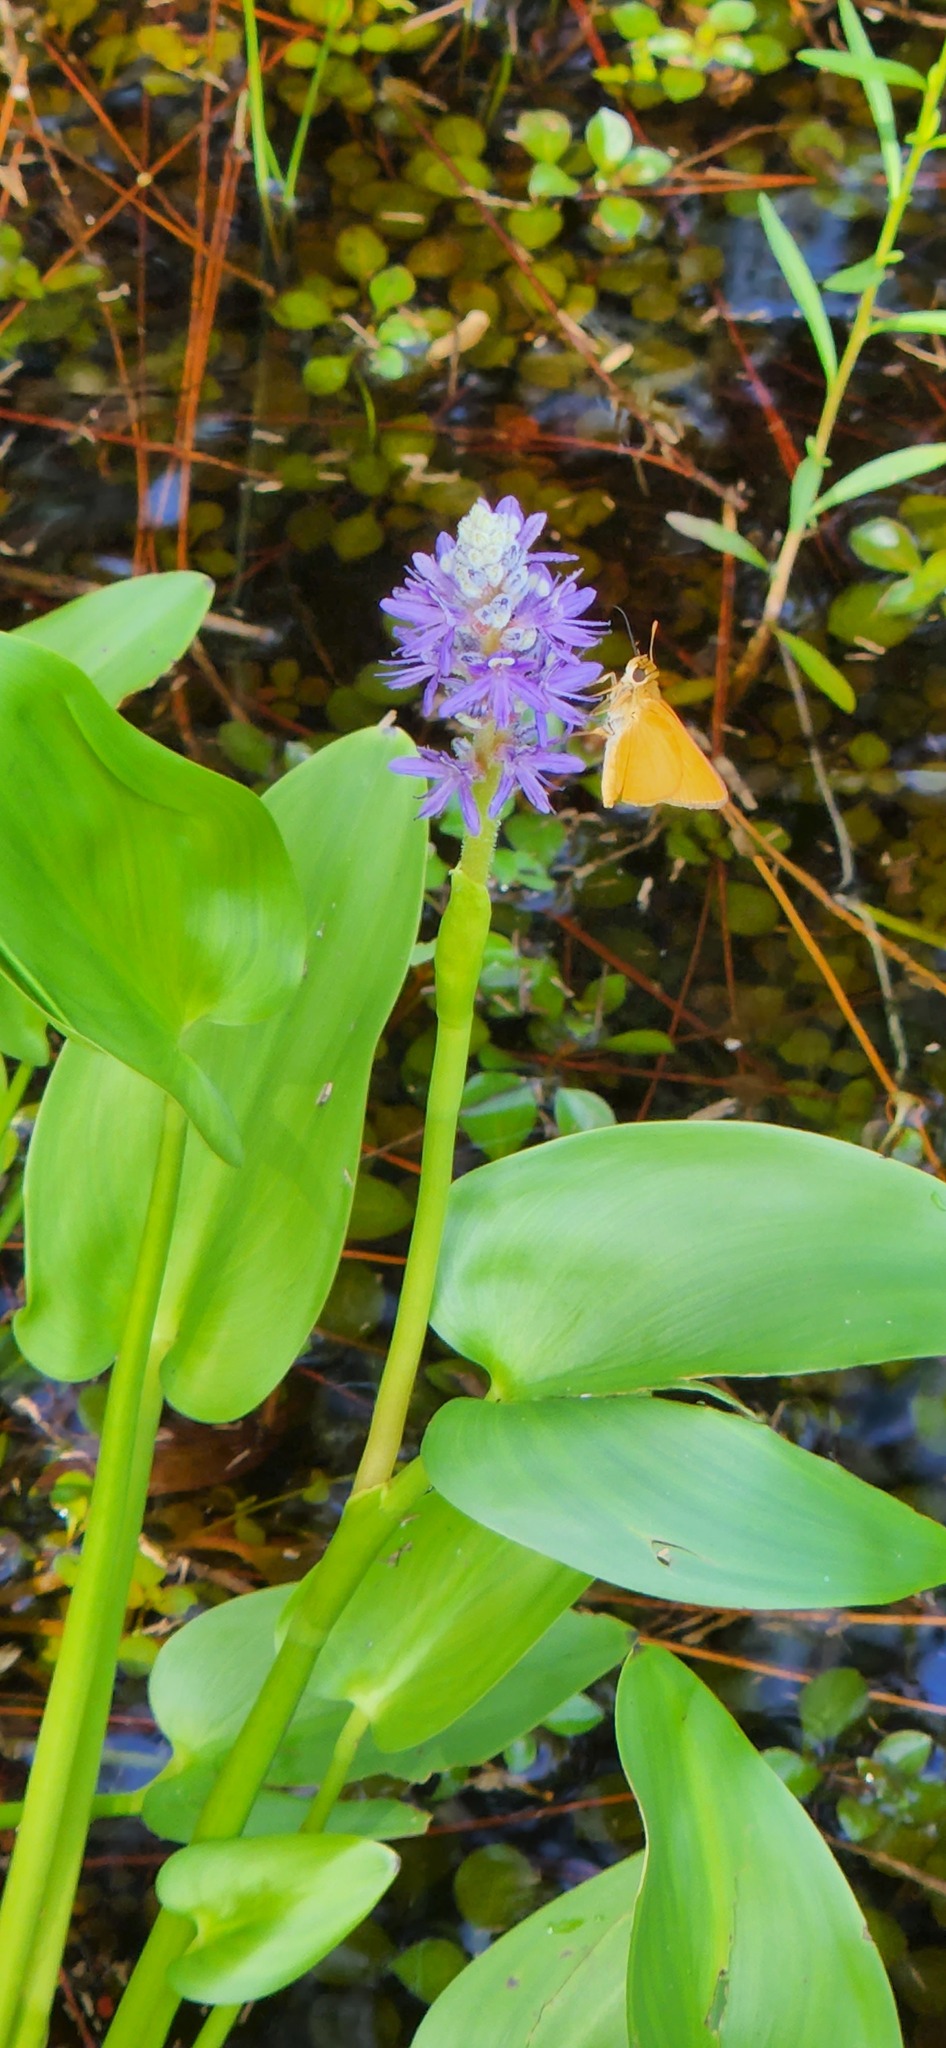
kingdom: Plantae
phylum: Tracheophyta
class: Liliopsida
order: Commelinales
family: Pontederiaceae
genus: Pontederia
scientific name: Pontederia cordata
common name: Pickerelweed
